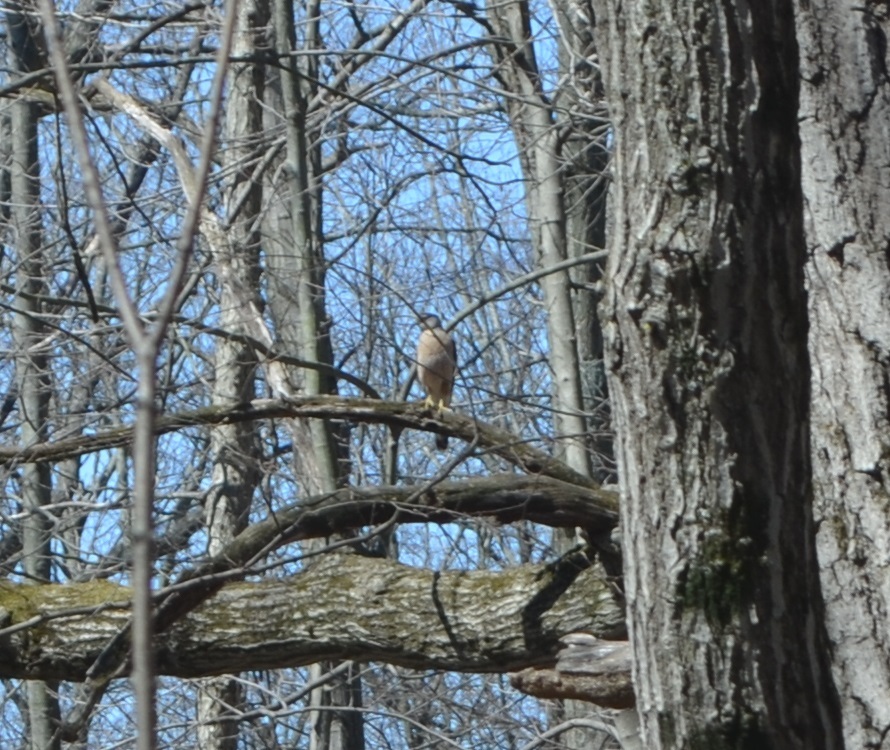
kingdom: Animalia
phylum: Chordata
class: Aves
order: Accipitriformes
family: Accipitridae
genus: Accipiter
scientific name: Accipiter cooperii
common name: Cooper's hawk
